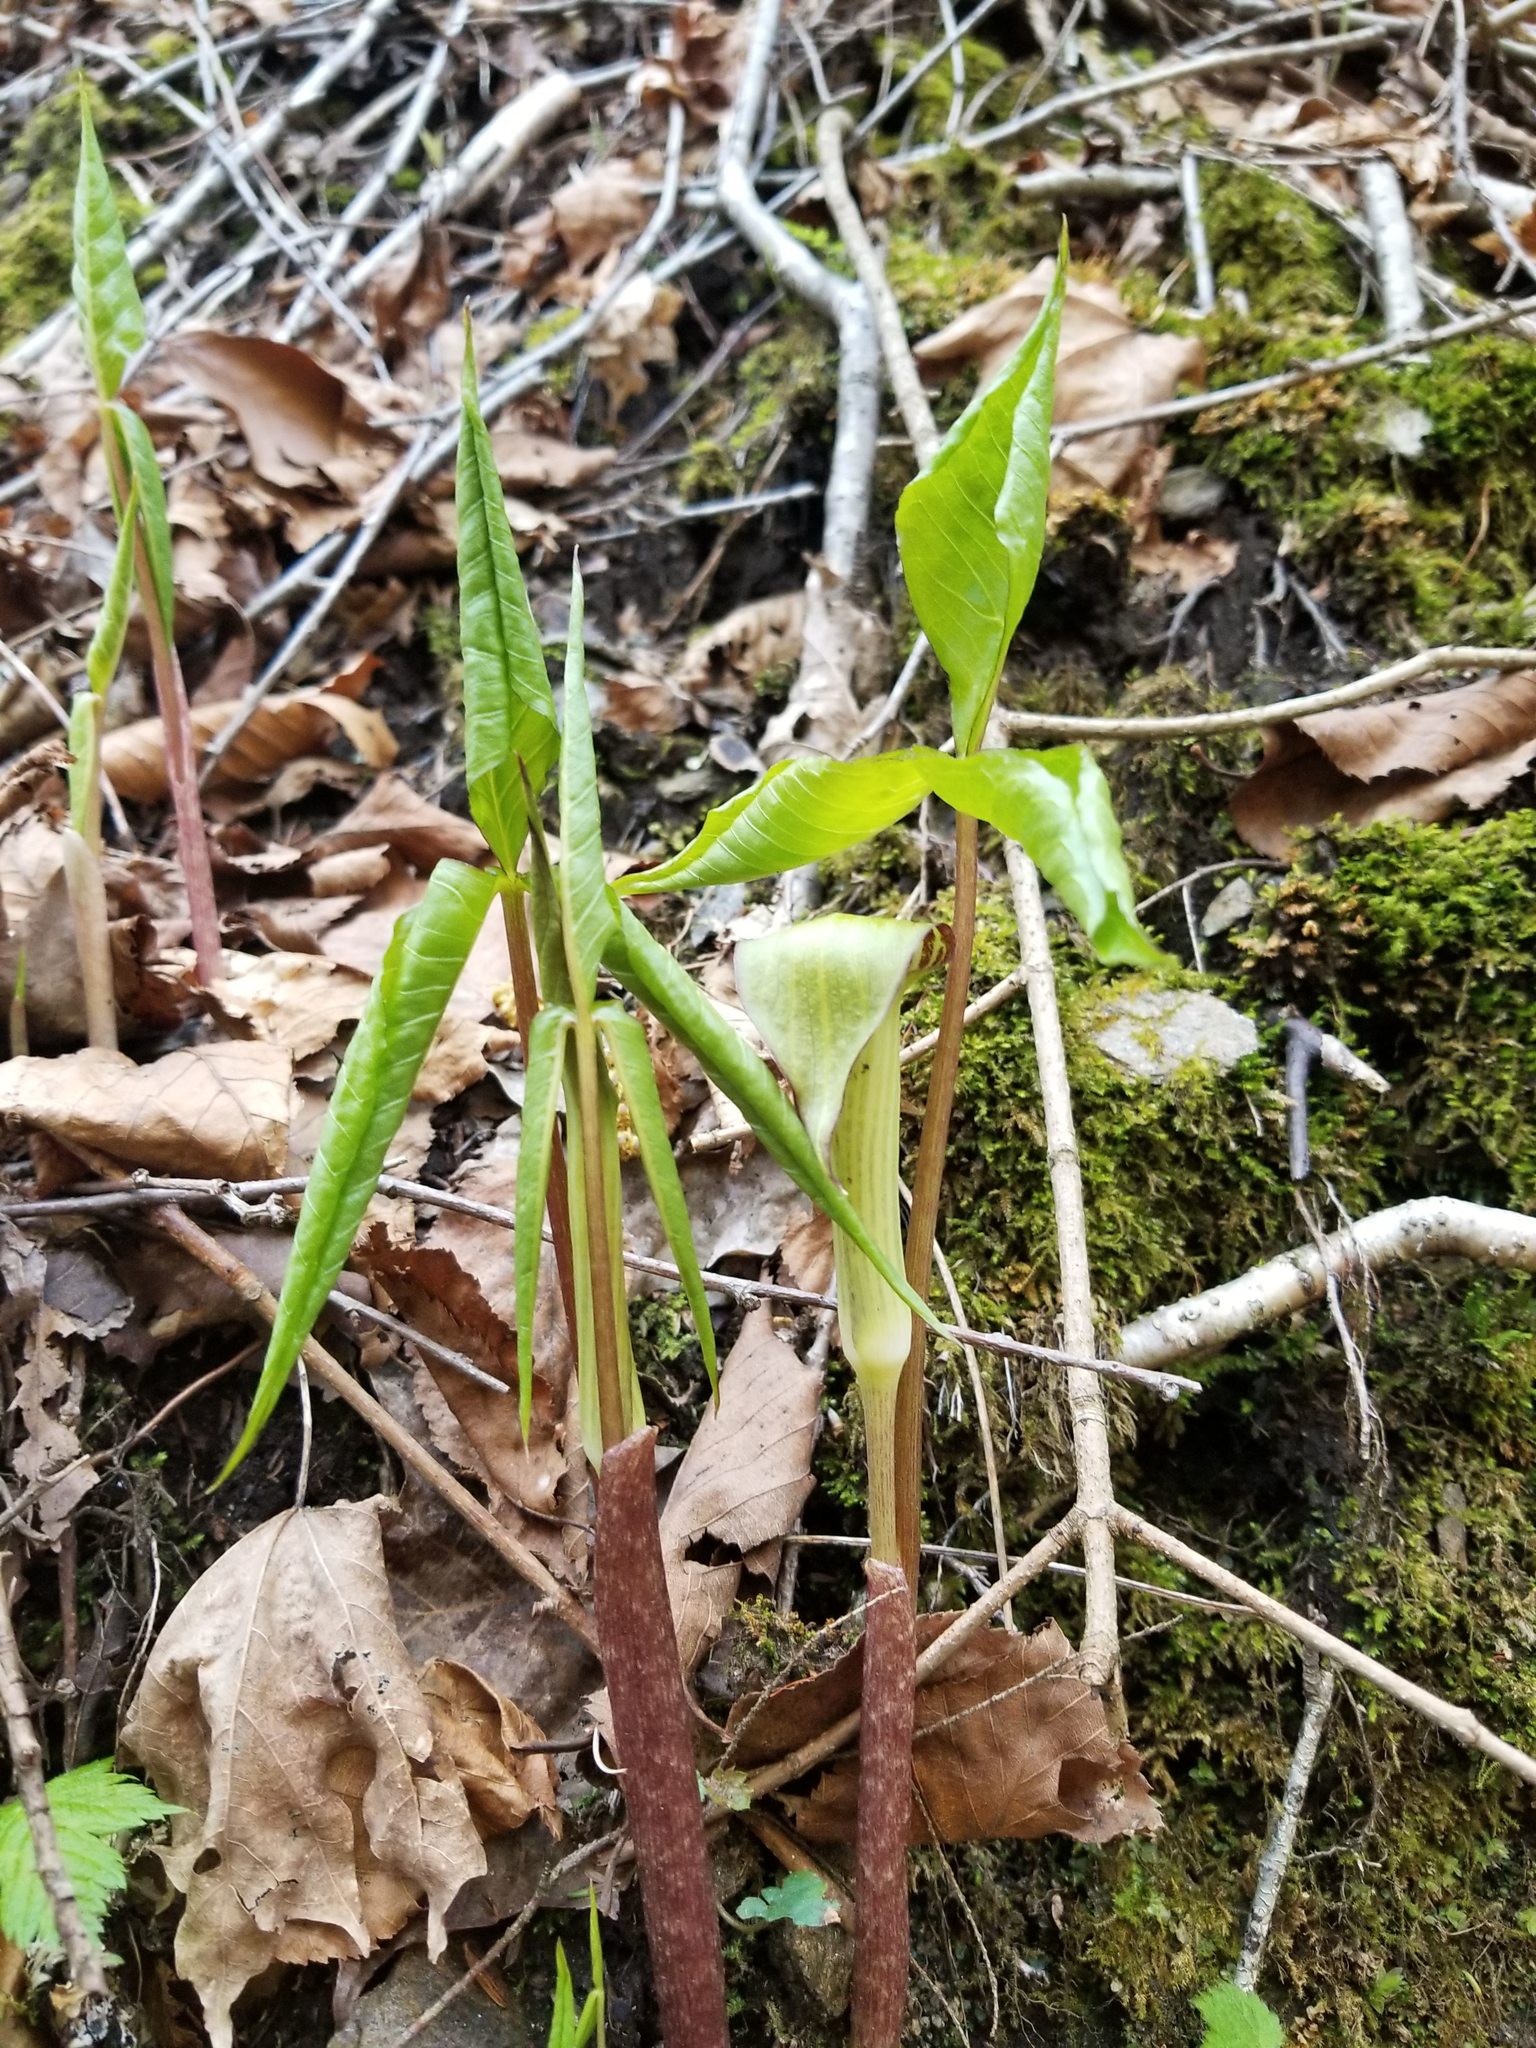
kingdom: Plantae
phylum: Tracheophyta
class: Liliopsida
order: Alismatales
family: Araceae
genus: Arisaema
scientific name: Arisaema triphyllum
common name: Jack-in-the-pulpit
